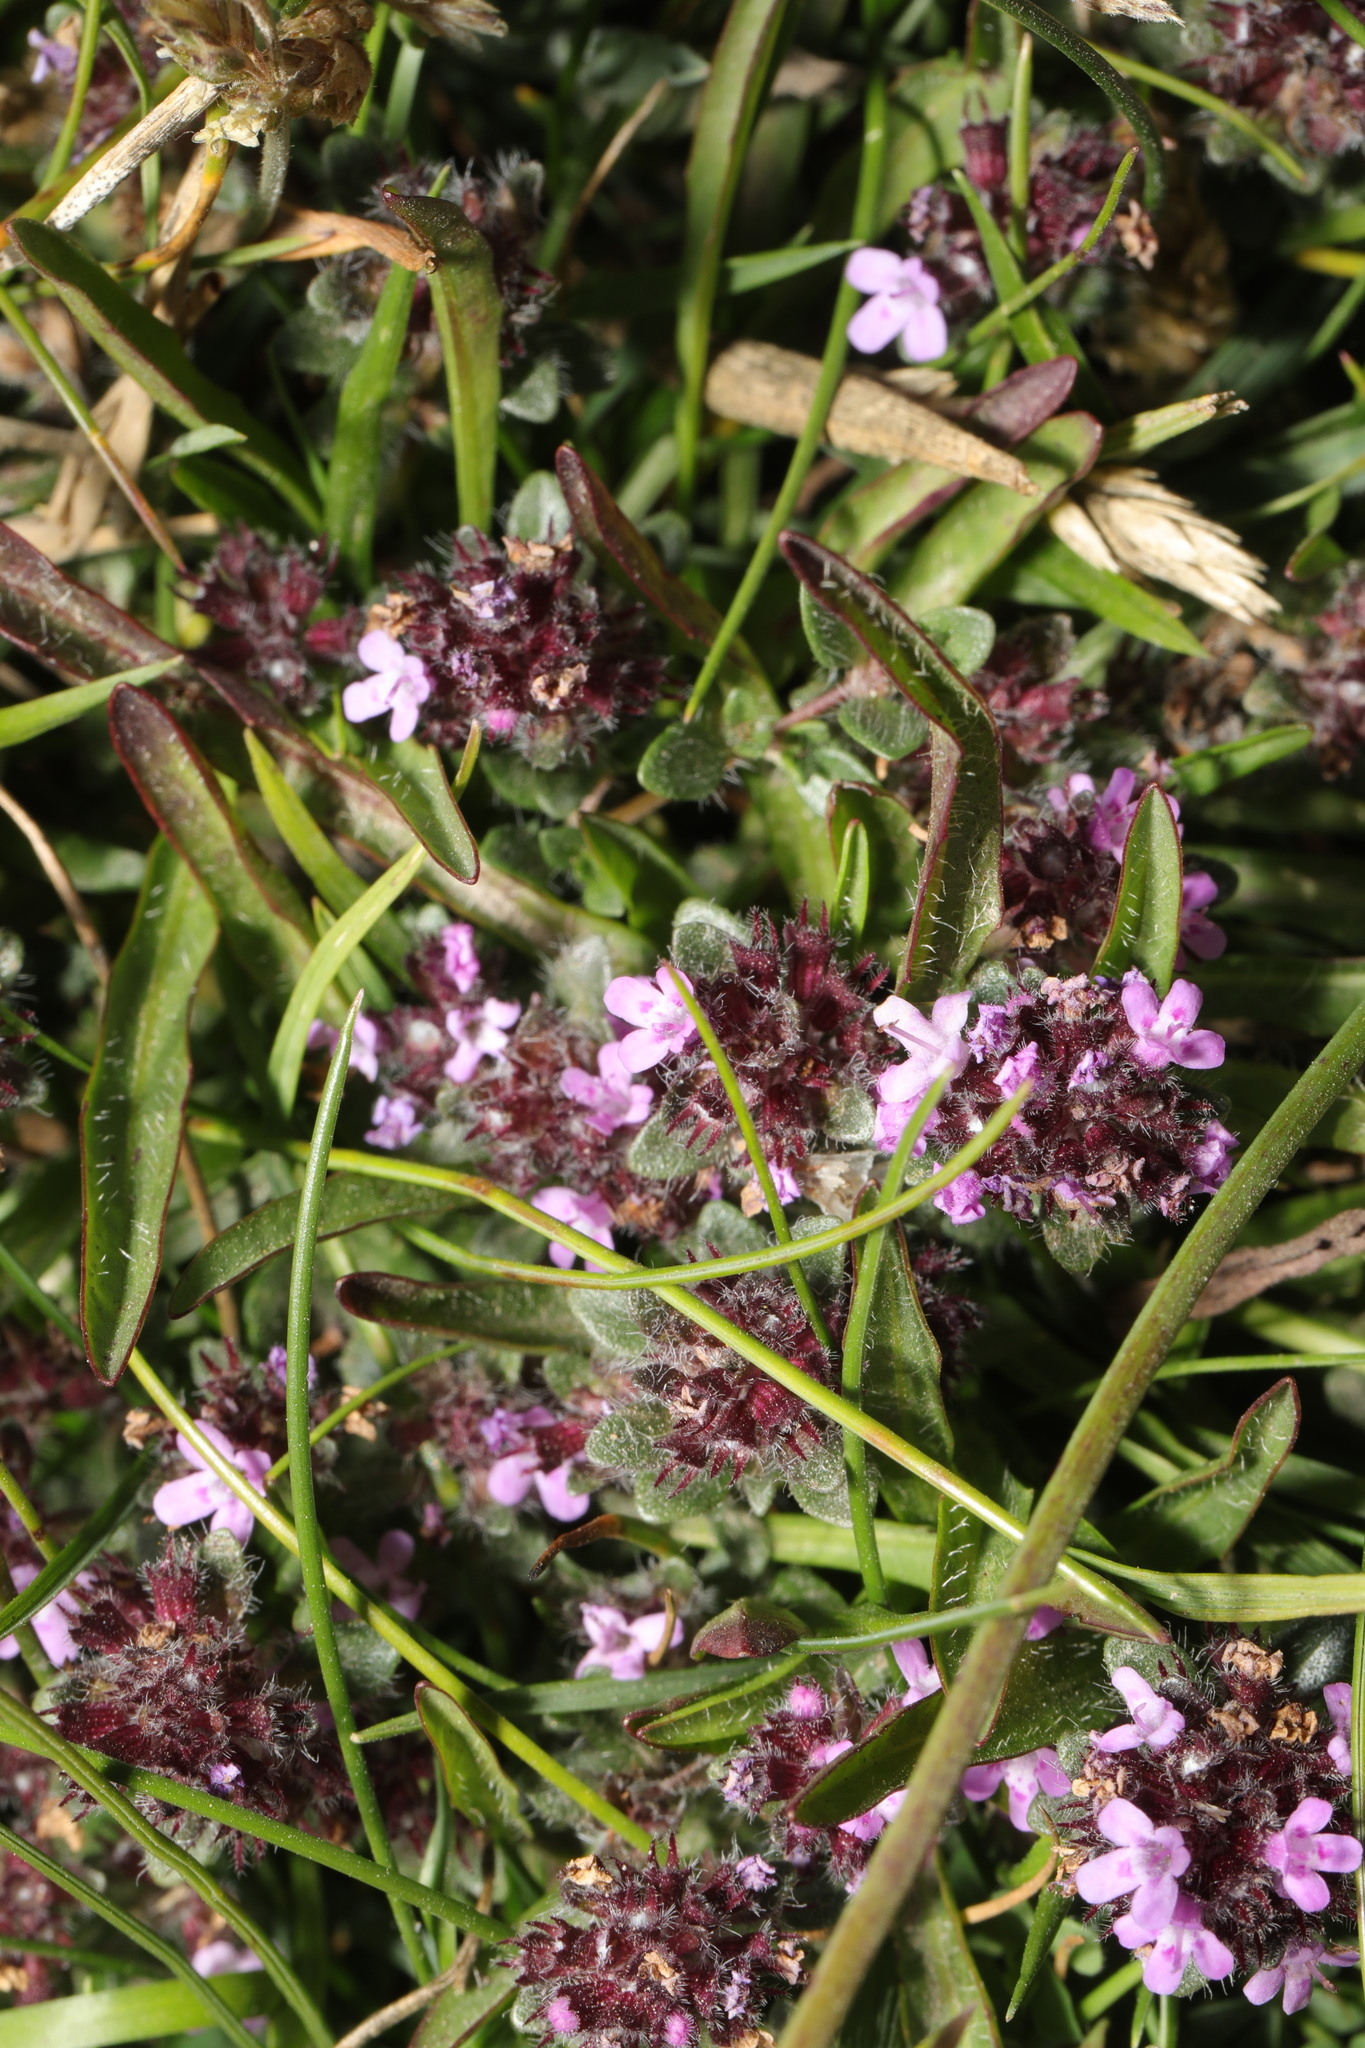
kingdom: Plantae
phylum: Tracheophyta
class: Magnoliopsida
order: Lamiales
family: Lamiaceae
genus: Thymus
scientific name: Thymus praecox
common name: Wild thyme
